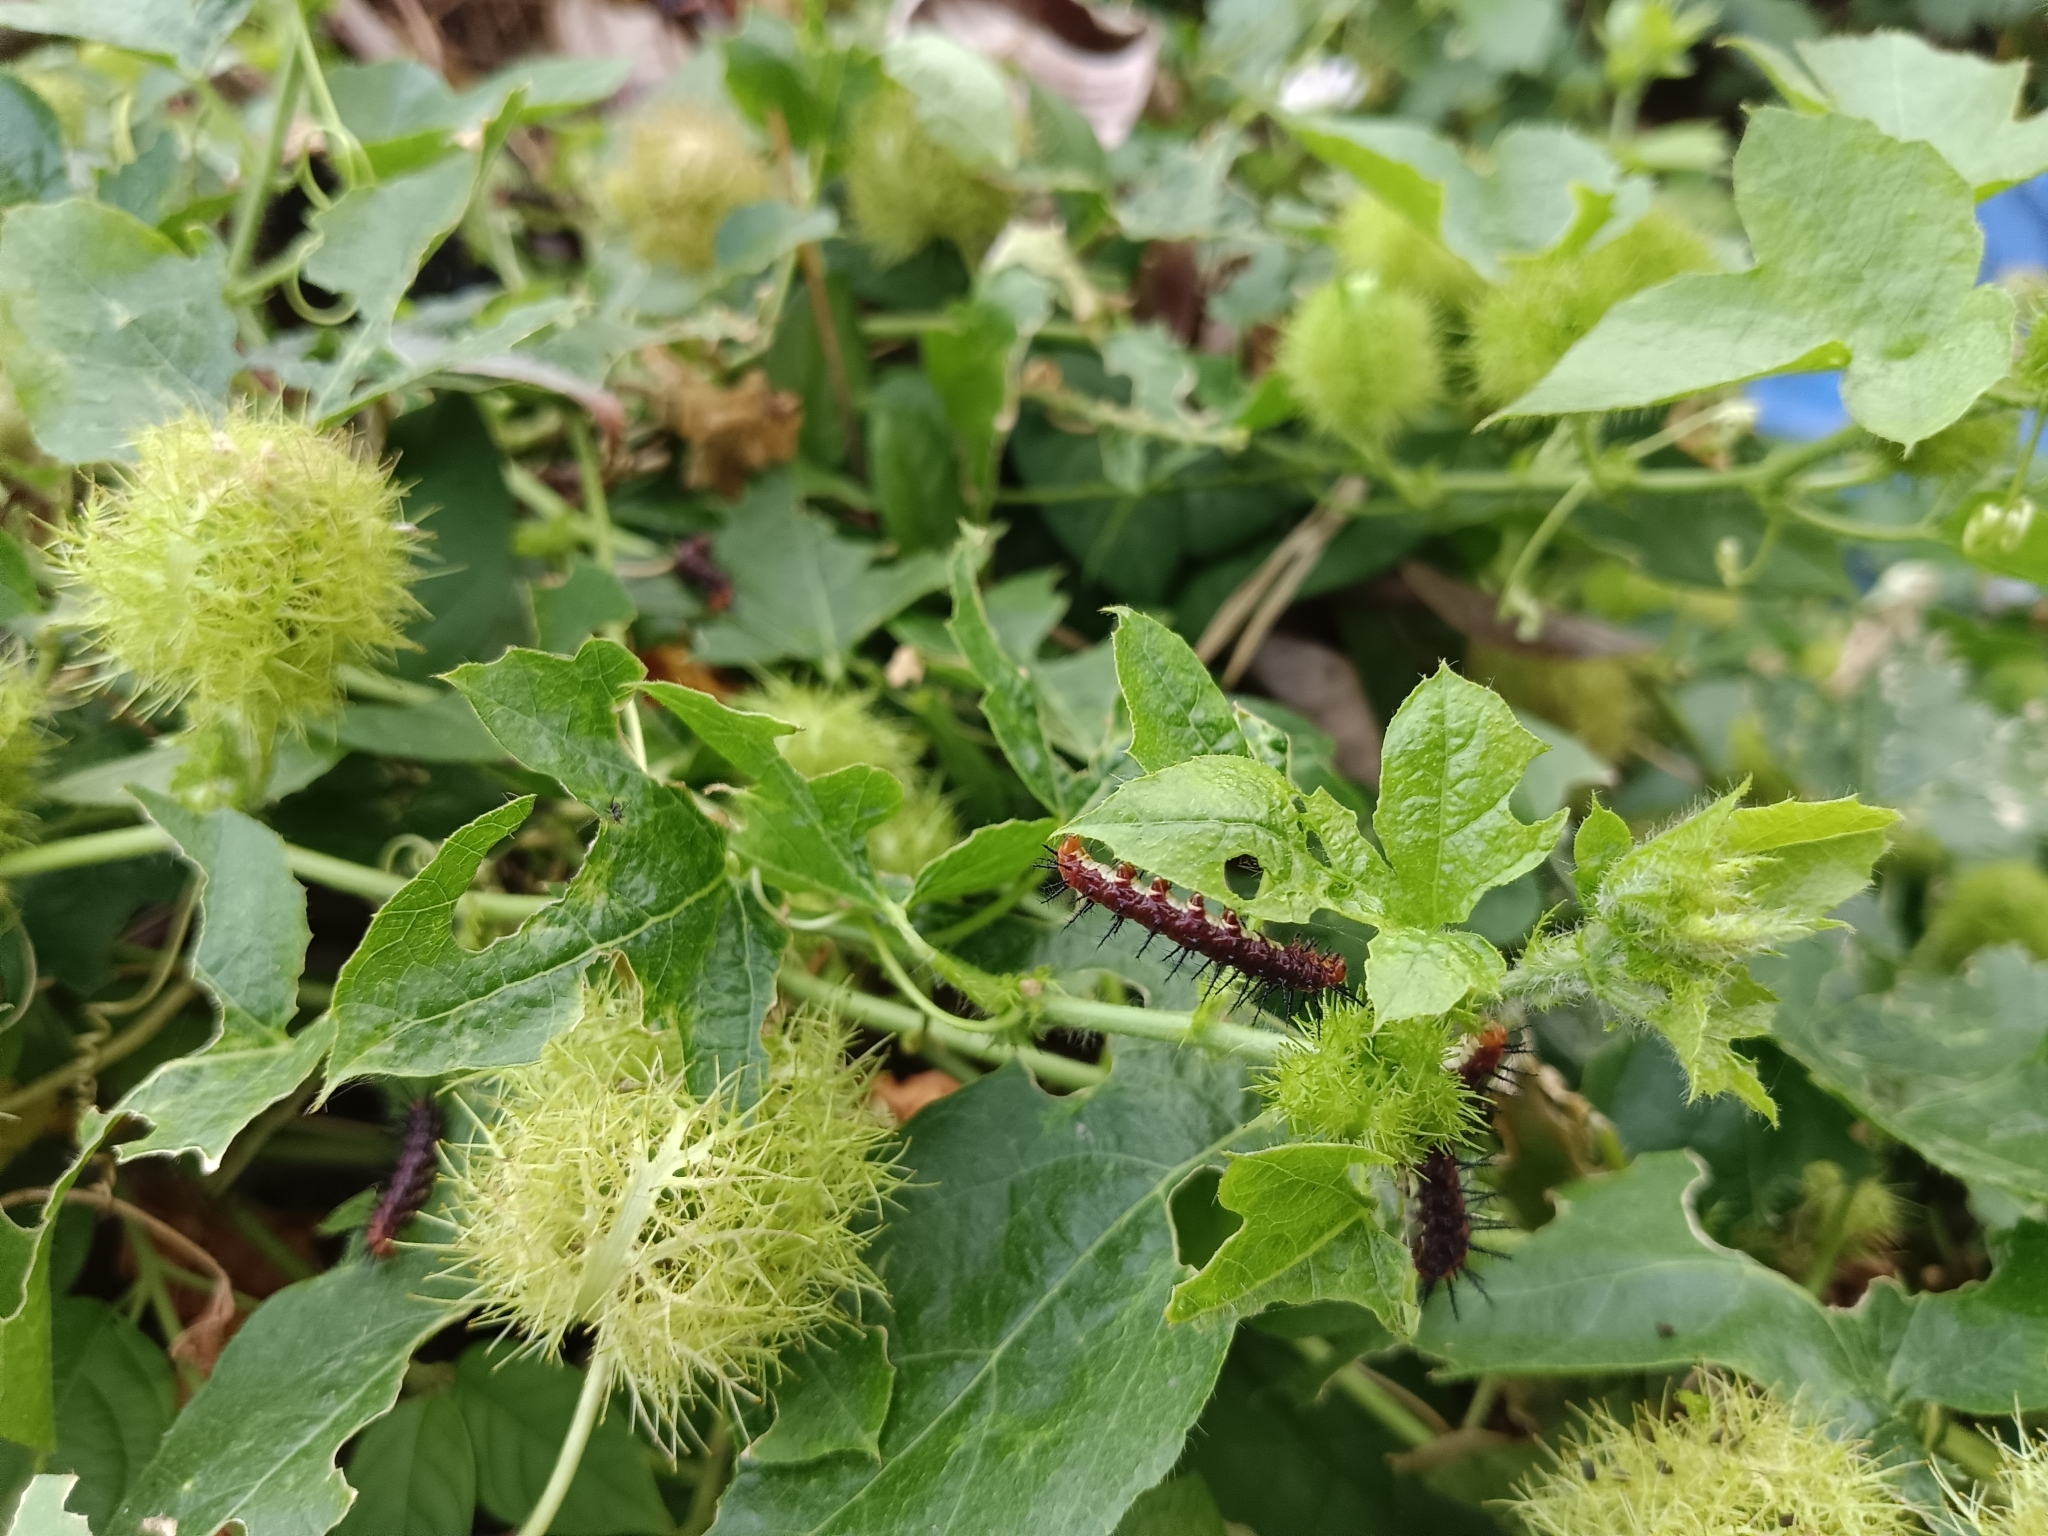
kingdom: Animalia
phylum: Arthropoda
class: Insecta
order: Lepidoptera
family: Nymphalidae
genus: Acraea
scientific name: Acraea terpsicore
